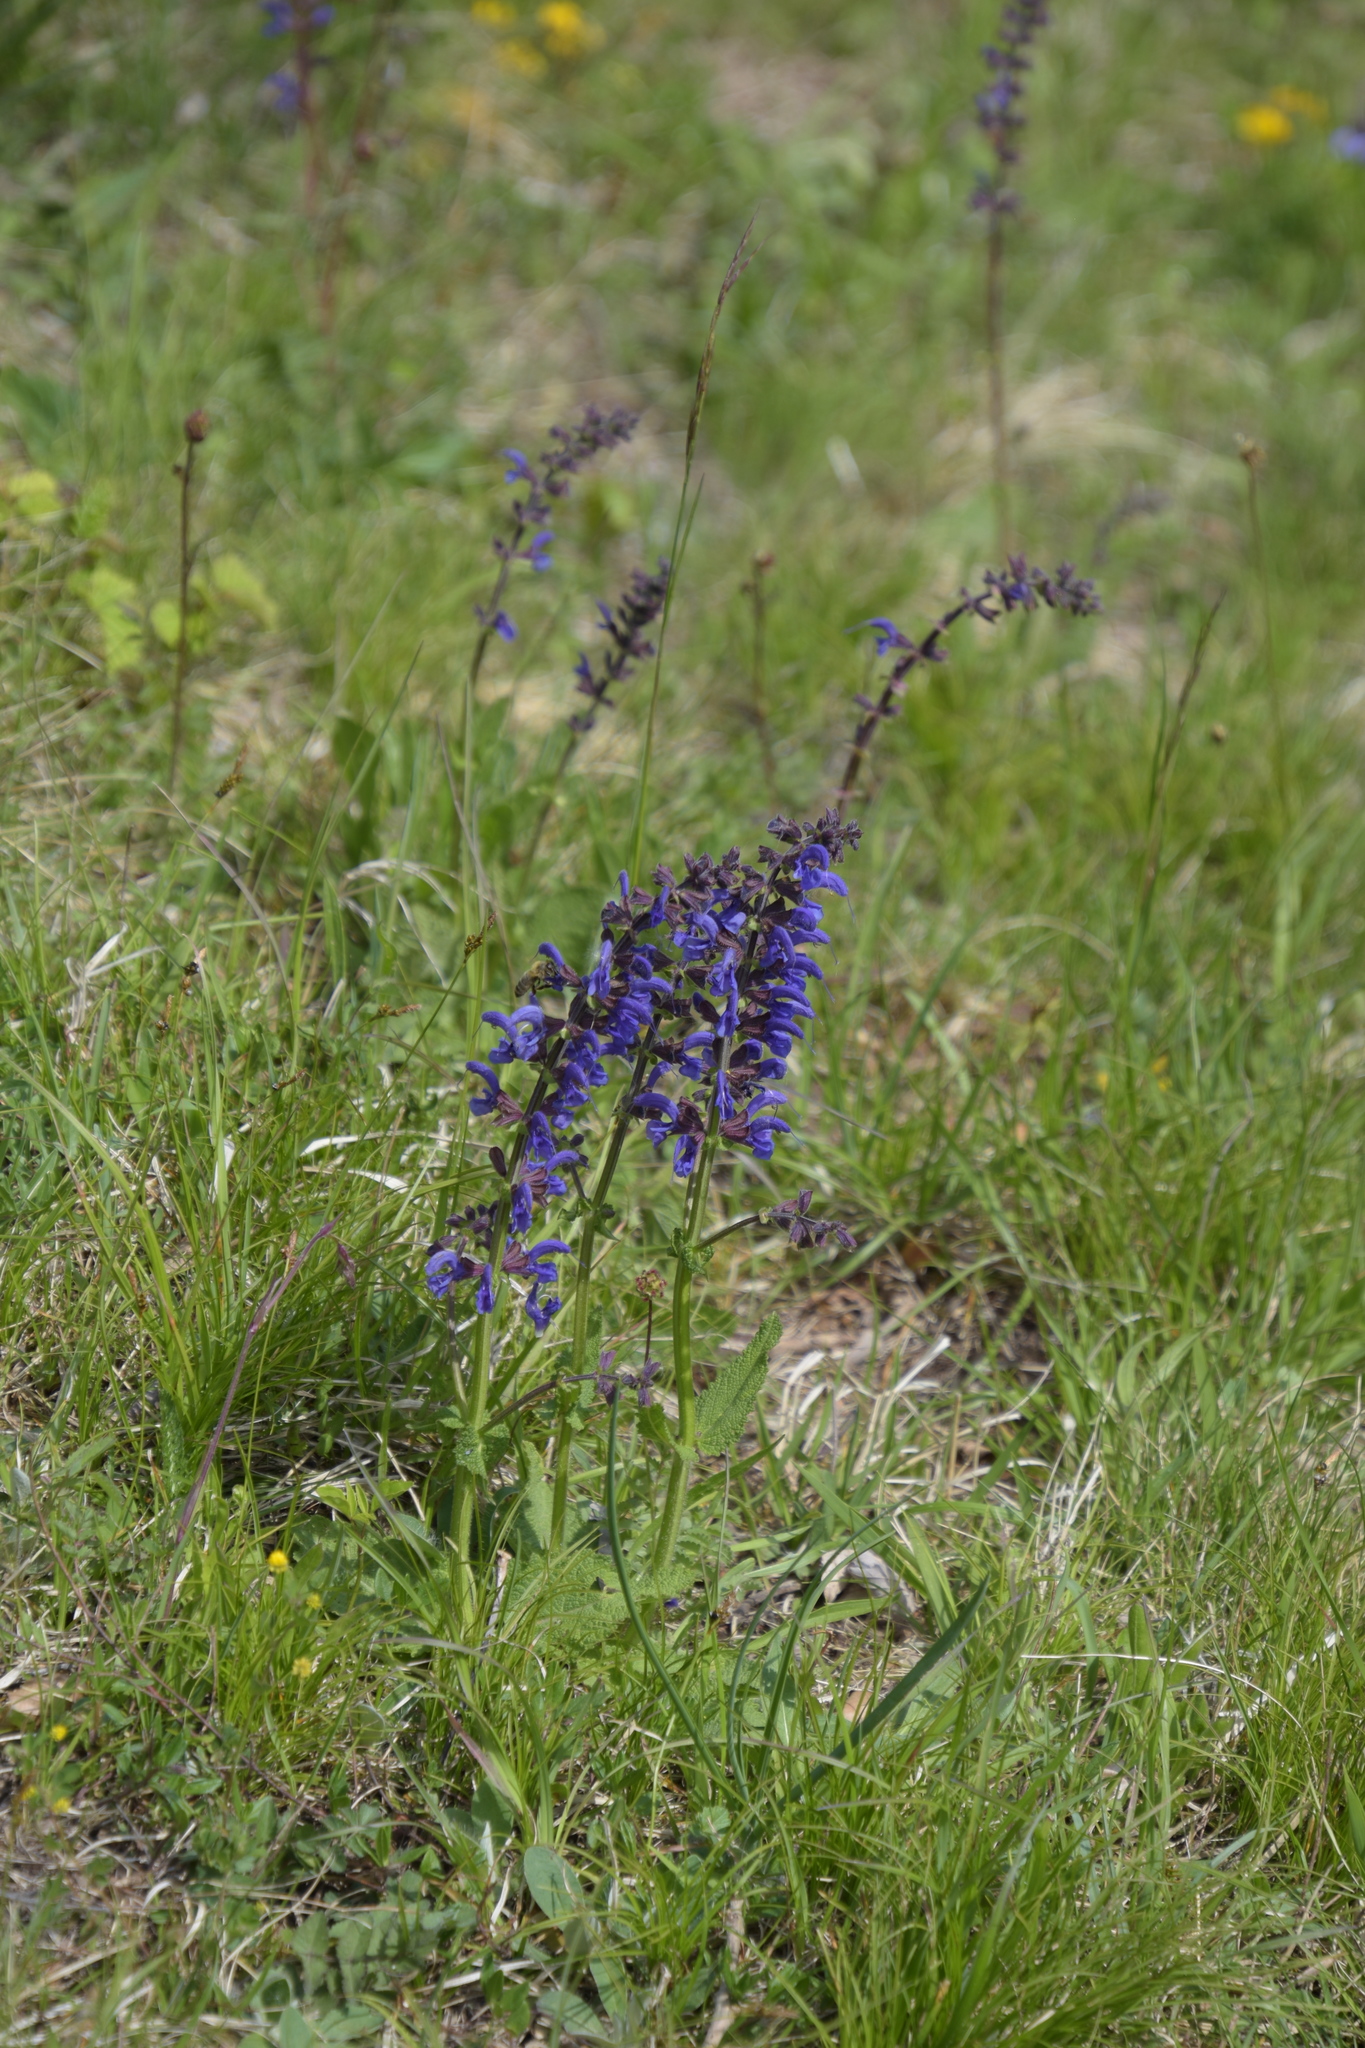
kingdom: Plantae
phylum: Tracheophyta
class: Magnoliopsida
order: Lamiales
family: Lamiaceae
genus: Salvia
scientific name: Salvia pratensis
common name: Meadow sage
